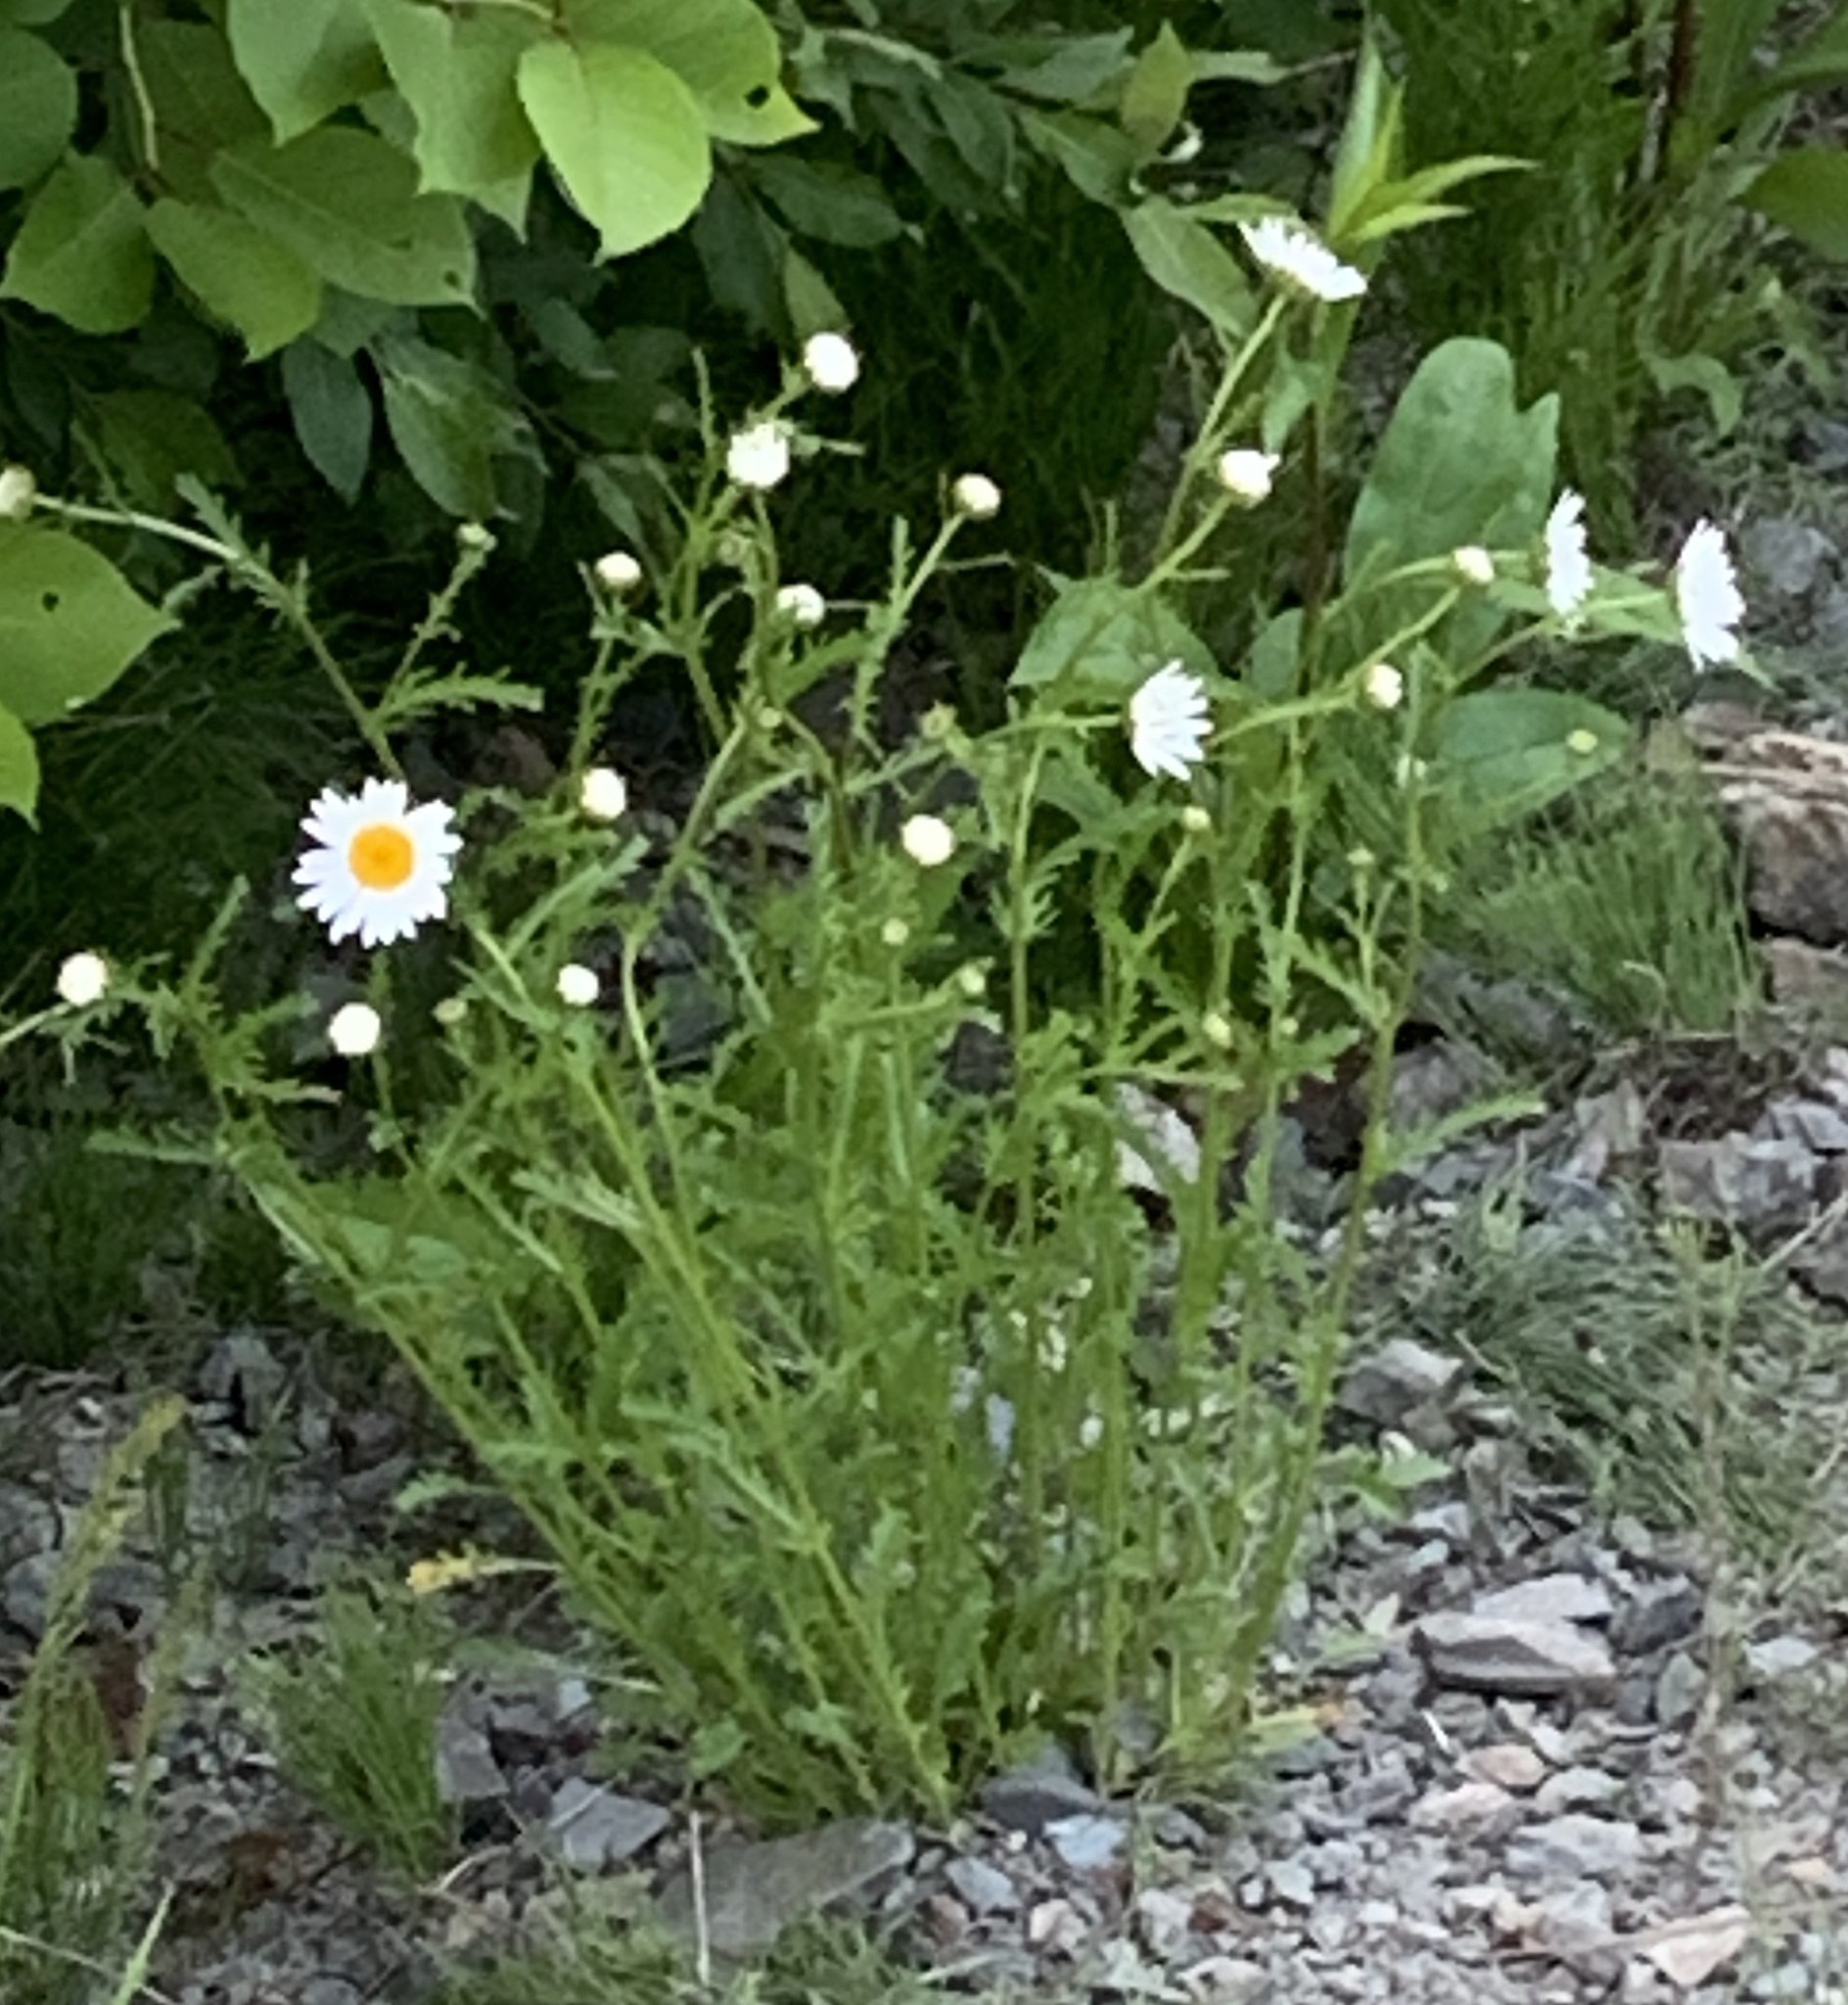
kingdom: Plantae
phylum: Tracheophyta
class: Magnoliopsida
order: Asterales
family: Asteraceae
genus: Leucanthemum
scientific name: Leucanthemum vulgare
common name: Oxeye daisy
